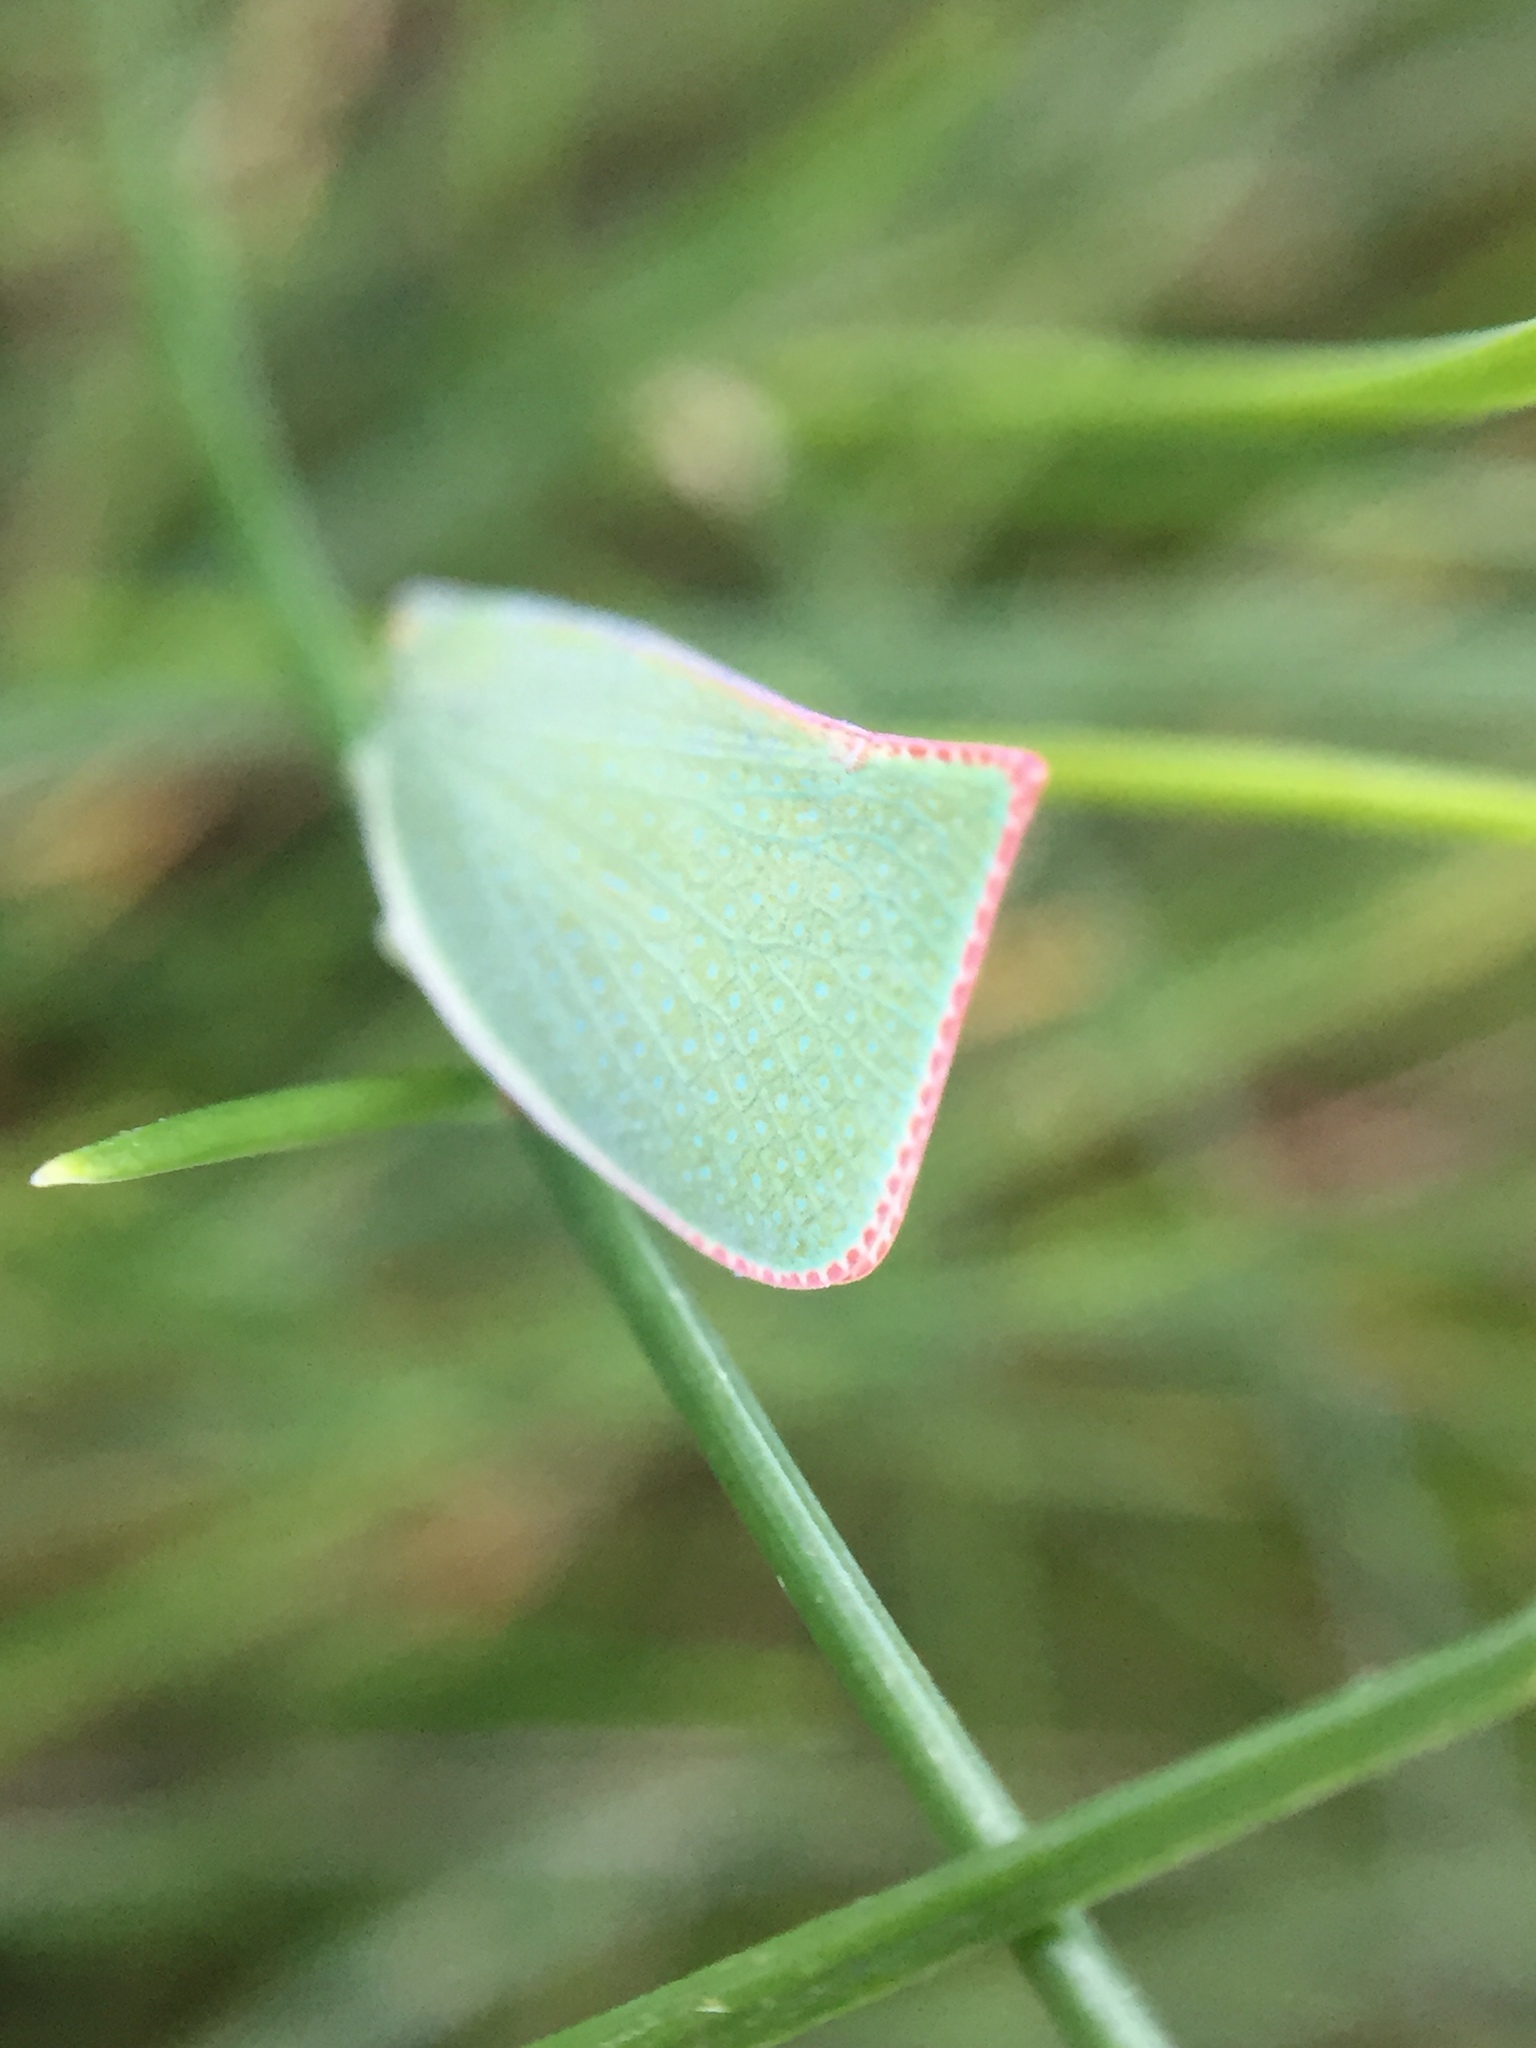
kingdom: Animalia
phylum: Arthropoda
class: Insecta
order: Hemiptera
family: Flatidae
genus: Siphanta
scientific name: Siphanta acuta
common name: Torpedo bug
